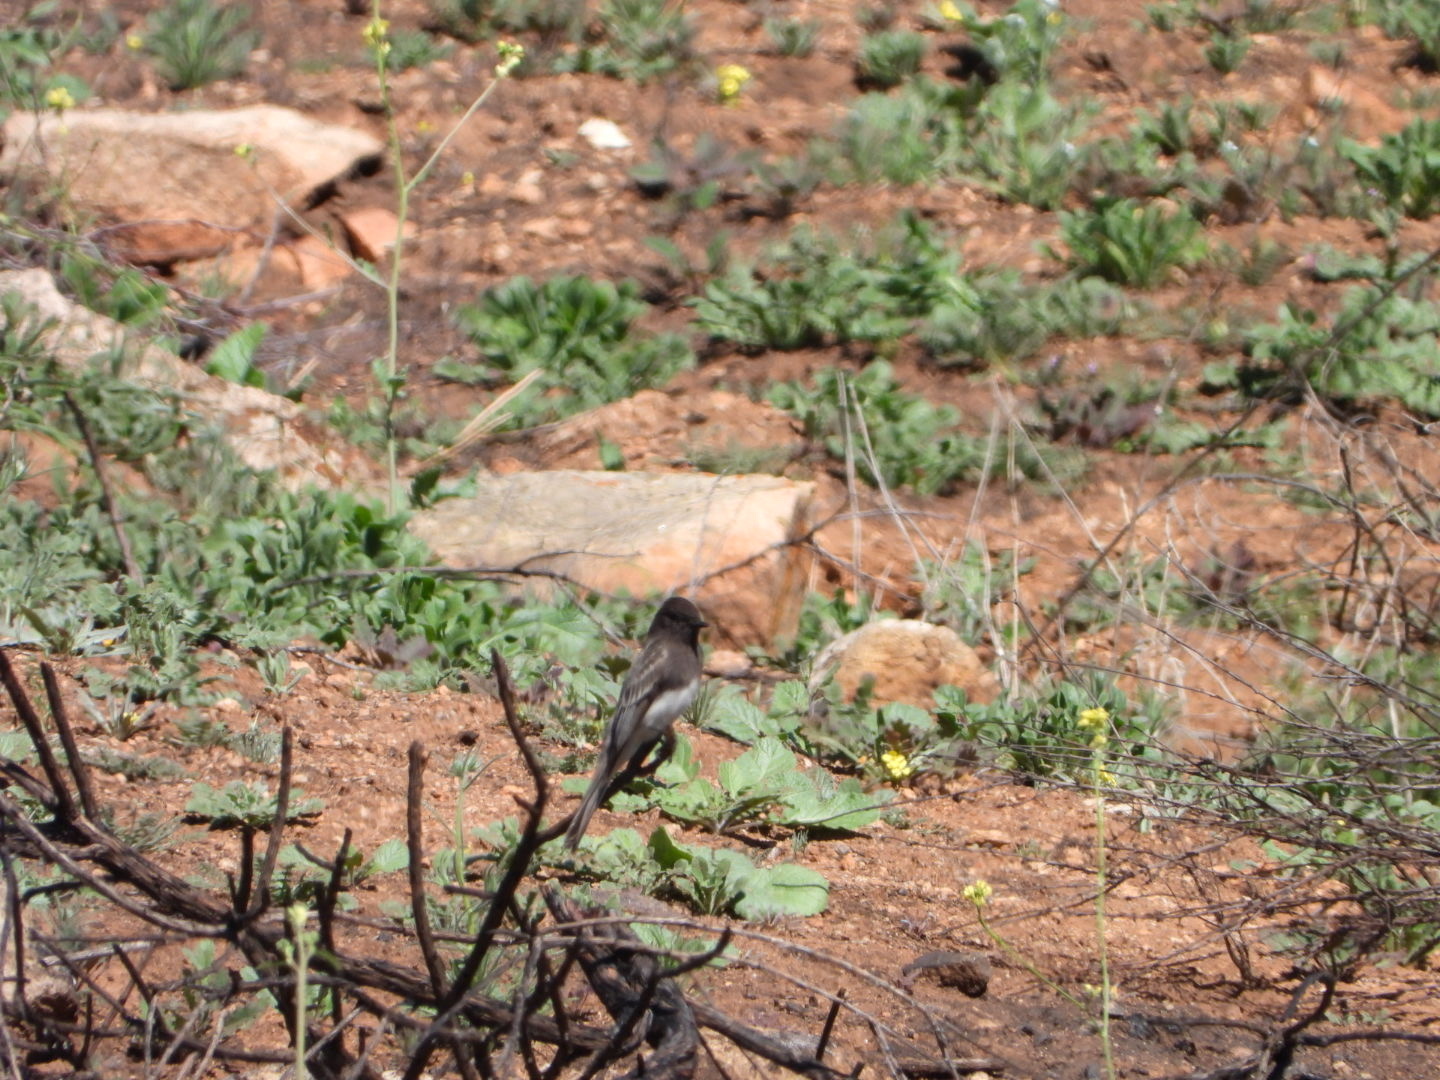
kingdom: Animalia
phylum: Chordata
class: Aves
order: Passeriformes
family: Tyrannidae
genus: Sayornis
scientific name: Sayornis nigricans
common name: Black phoebe
